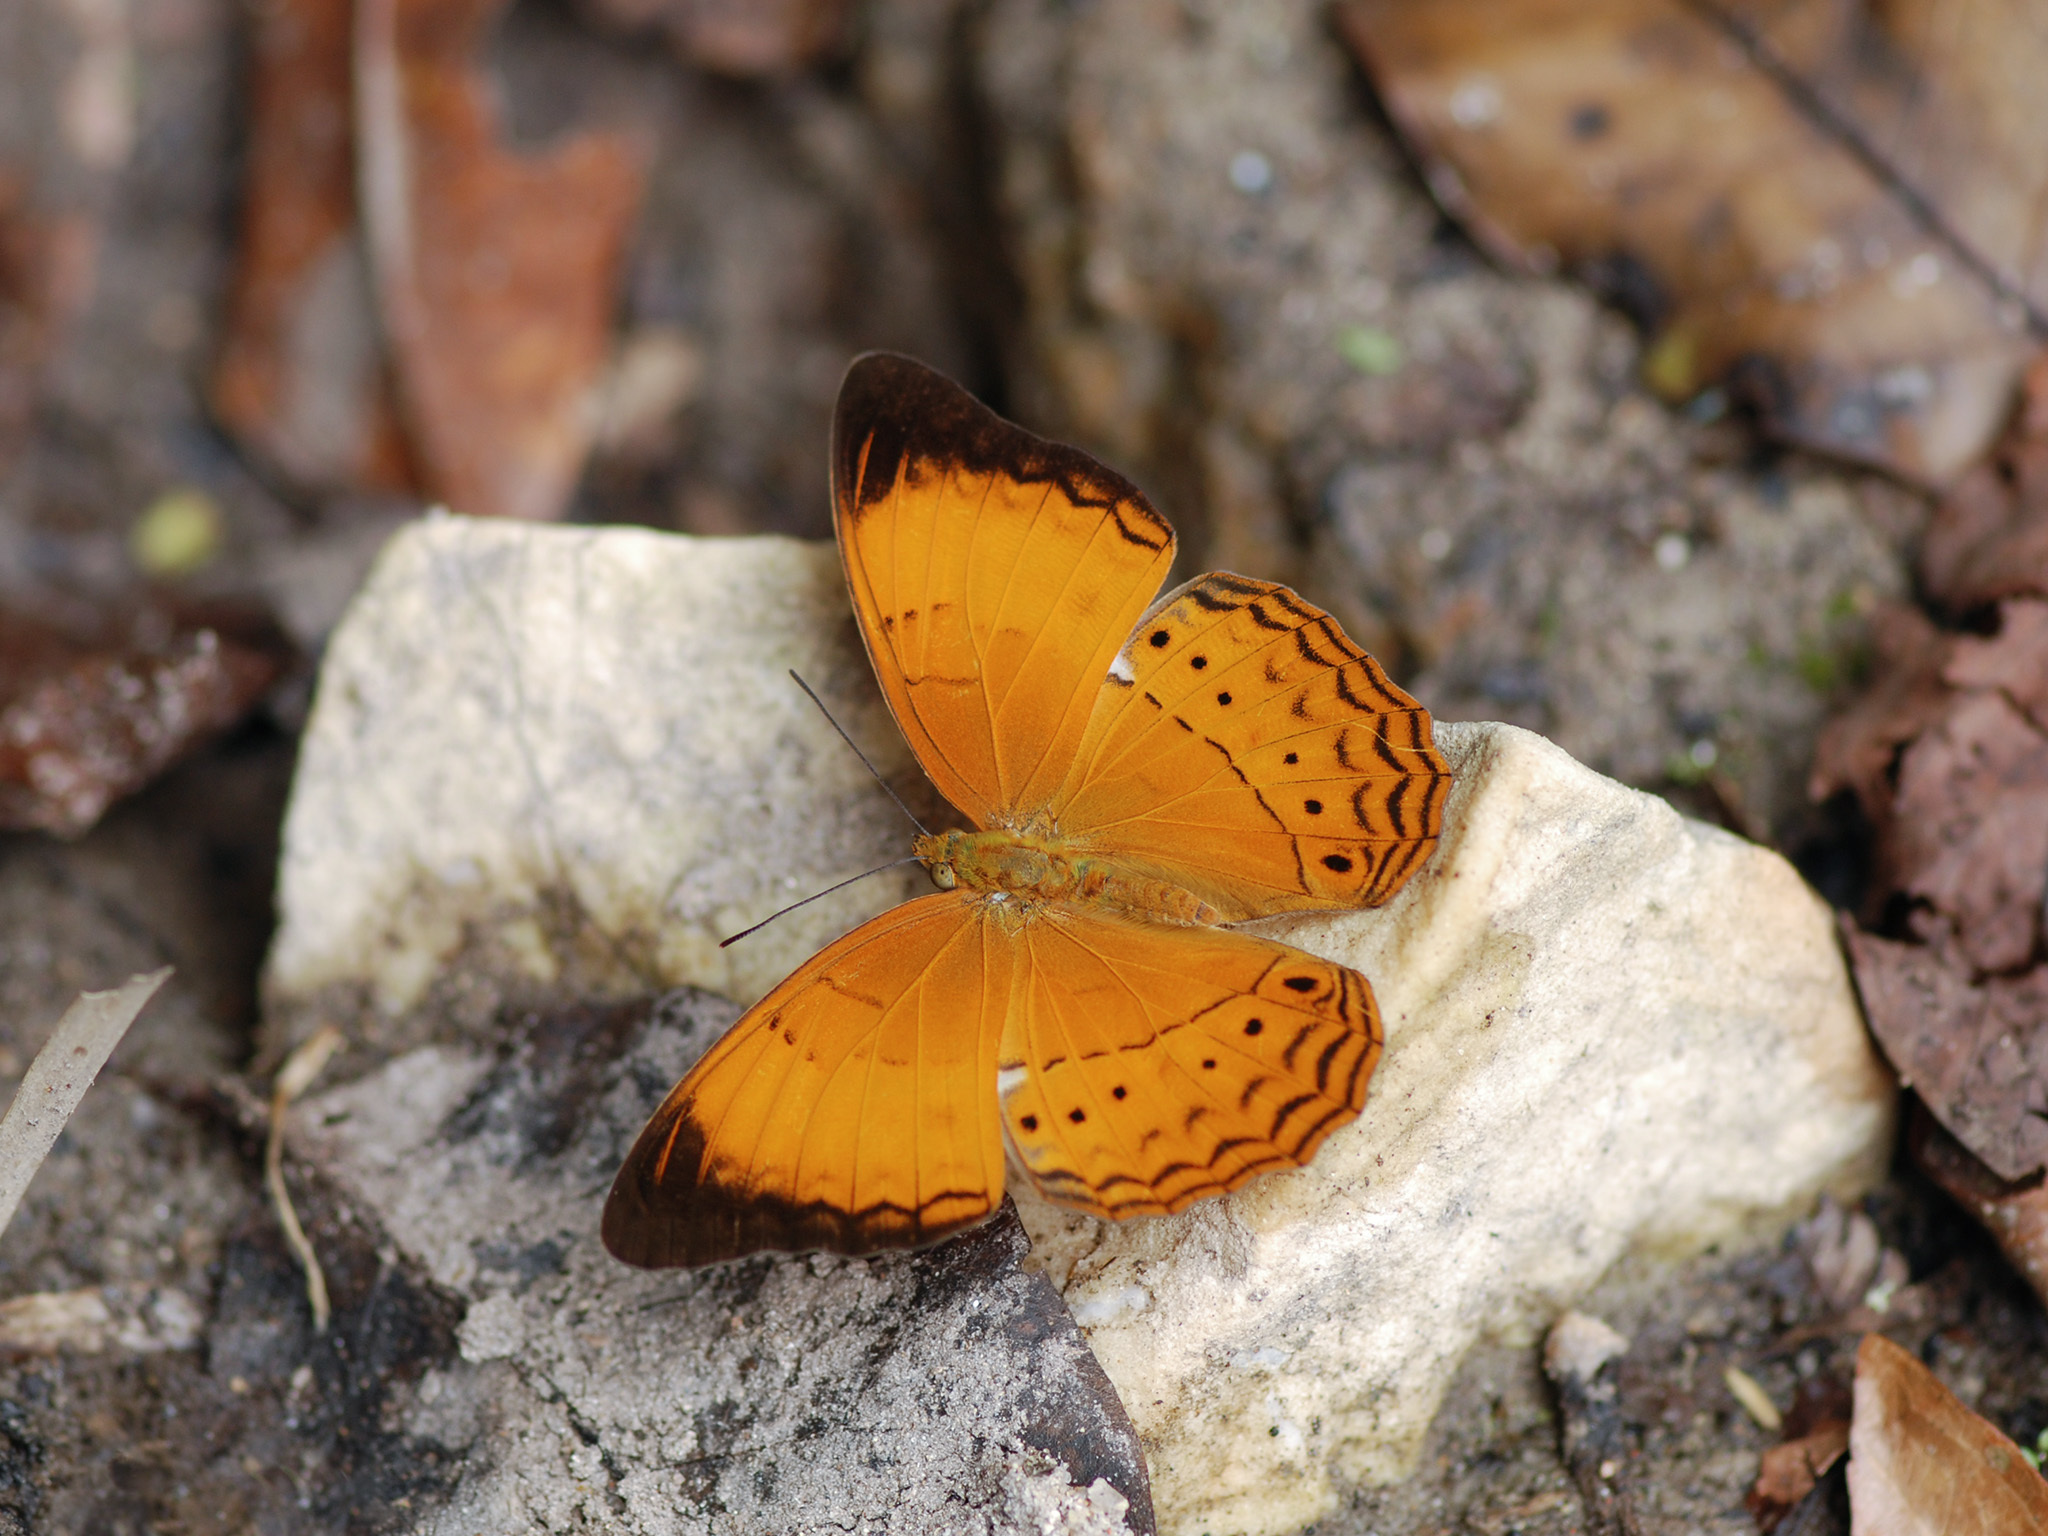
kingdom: Animalia
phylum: Arthropoda
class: Insecta
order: Lepidoptera
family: Nymphalidae
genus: Cirrochroa
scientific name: Cirrochroa malaya
